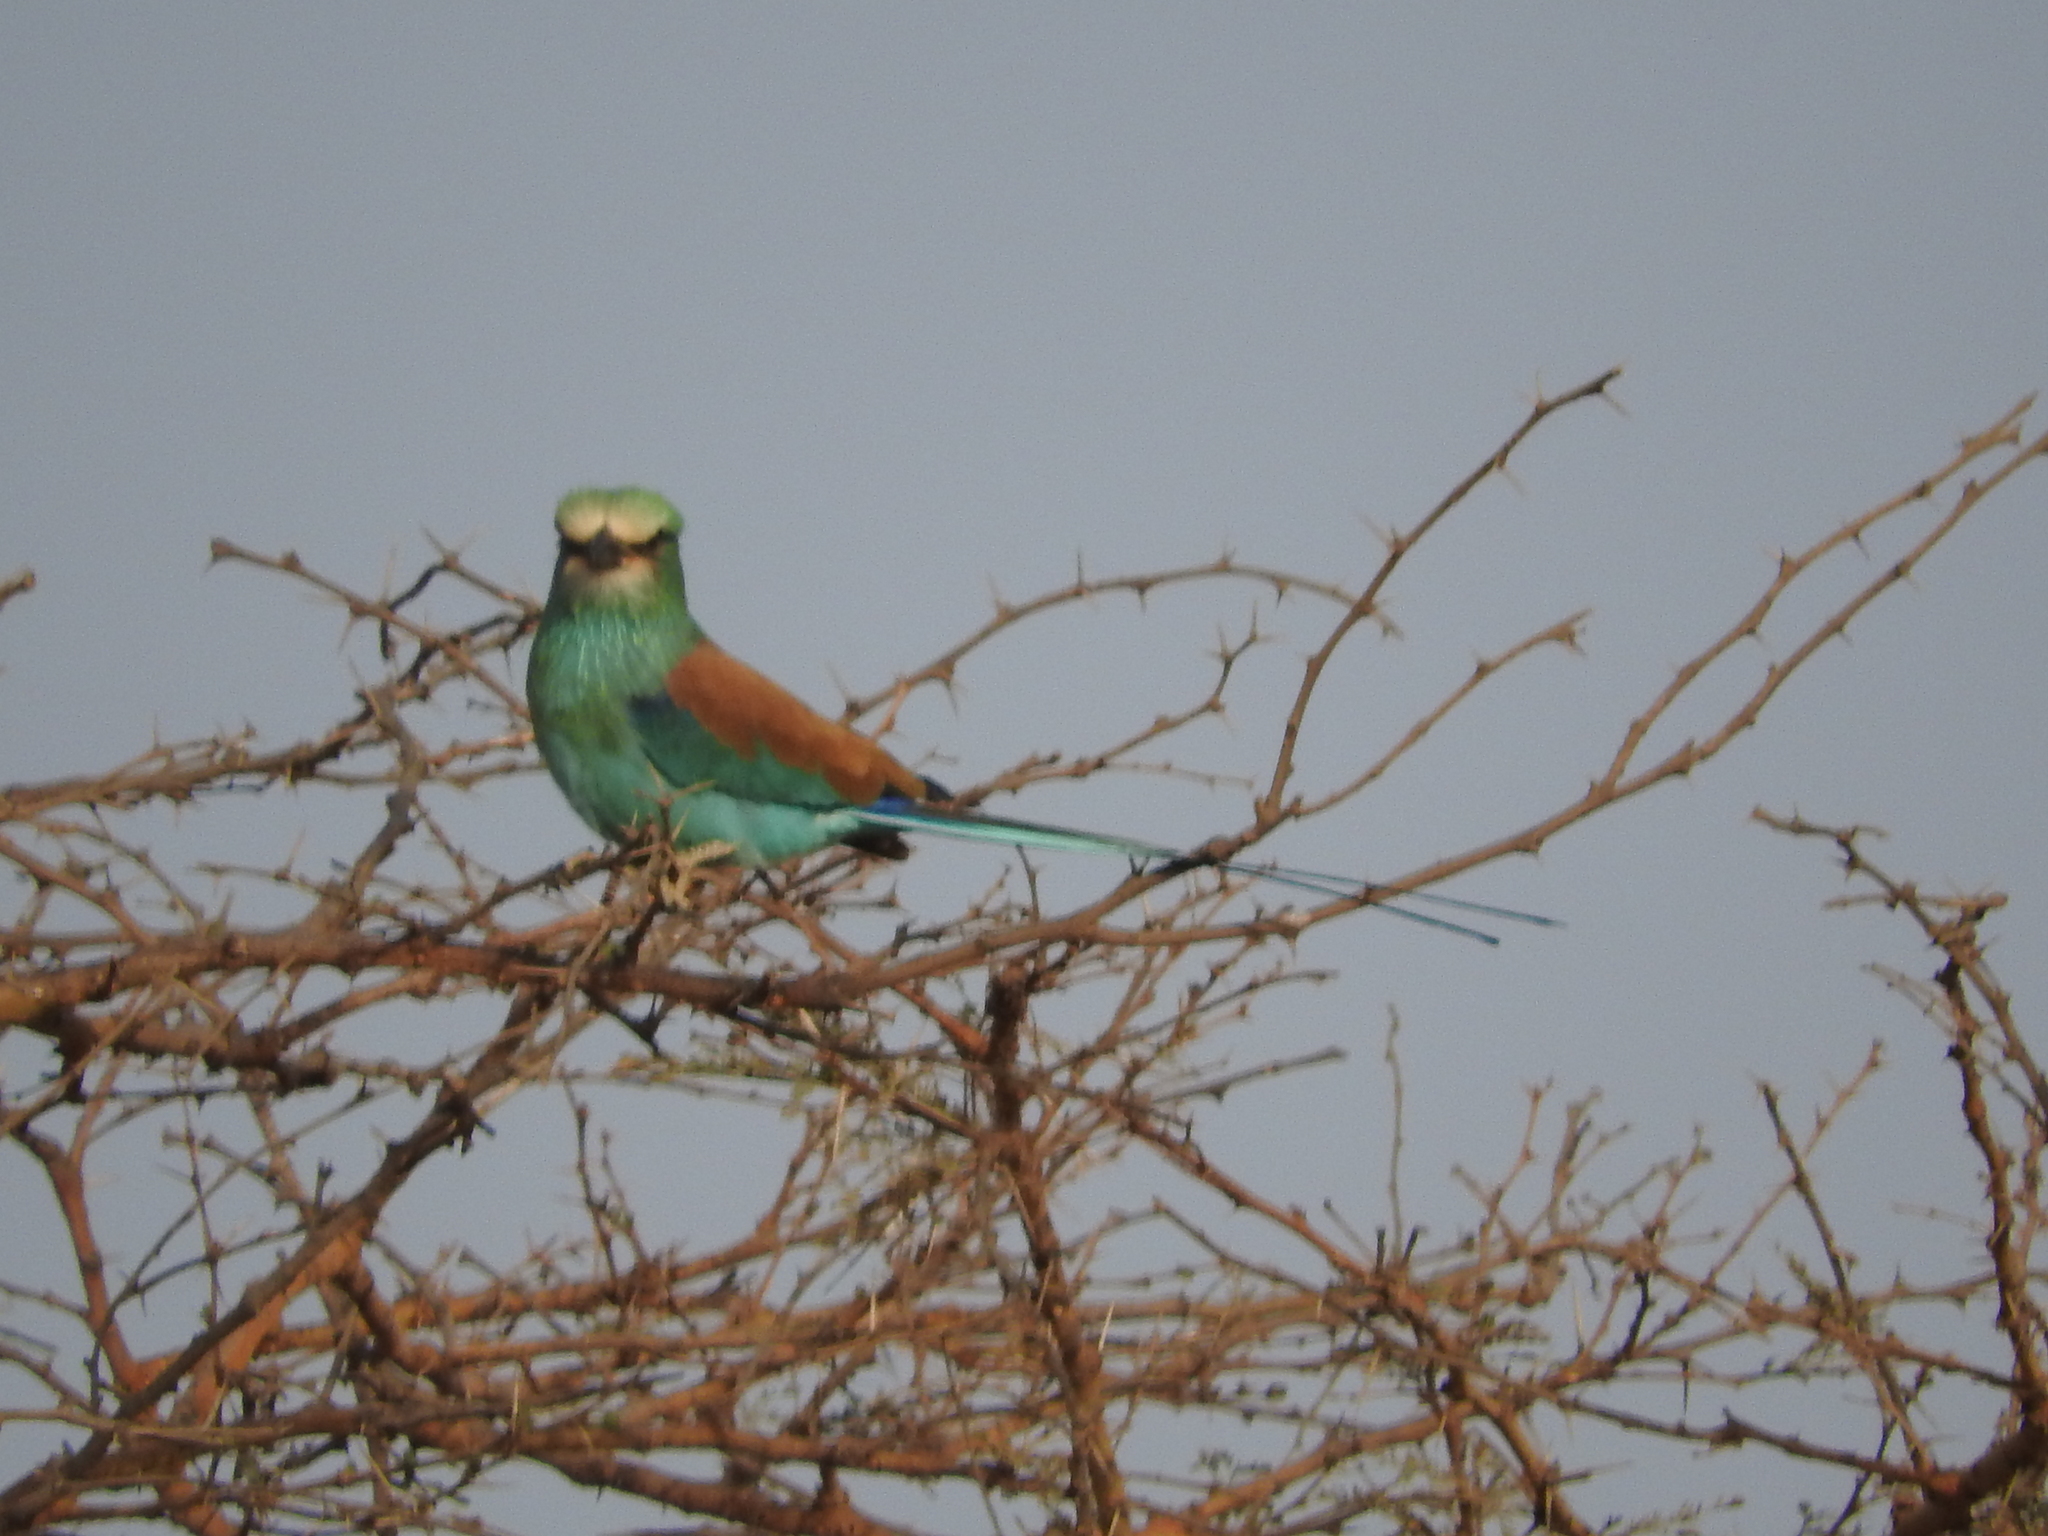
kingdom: Animalia
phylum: Chordata
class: Aves
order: Coraciiformes
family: Coraciidae
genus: Coracias
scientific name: Coracias abyssinicus
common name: Abyssinian roller
